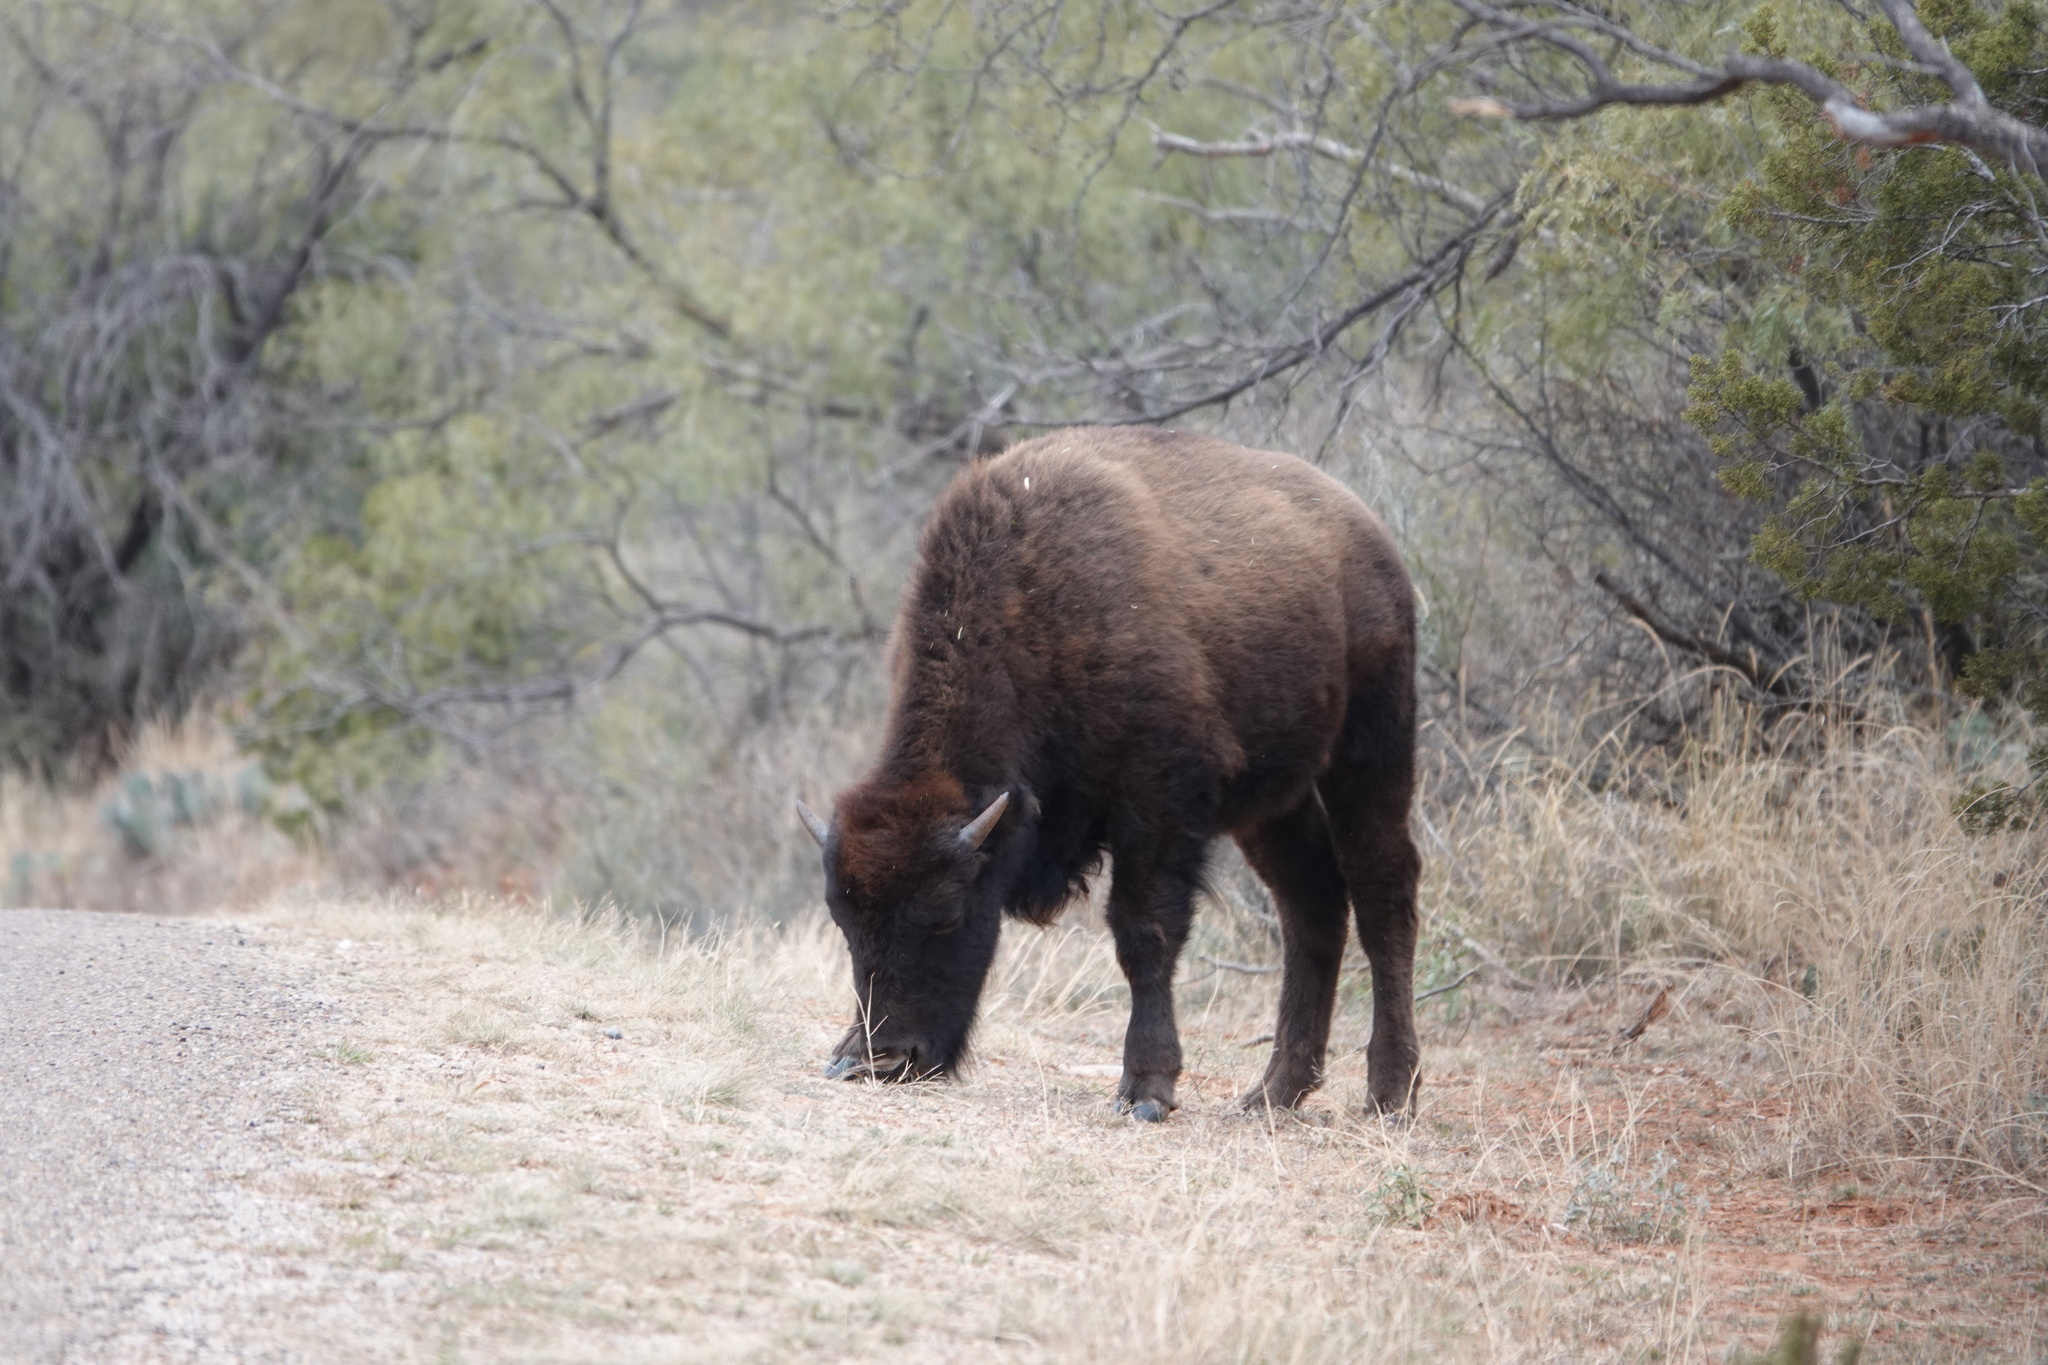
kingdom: Animalia
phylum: Chordata
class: Mammalia
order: Artiodactyla
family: Bovidae
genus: Bison
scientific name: Bison bison
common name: American bison
